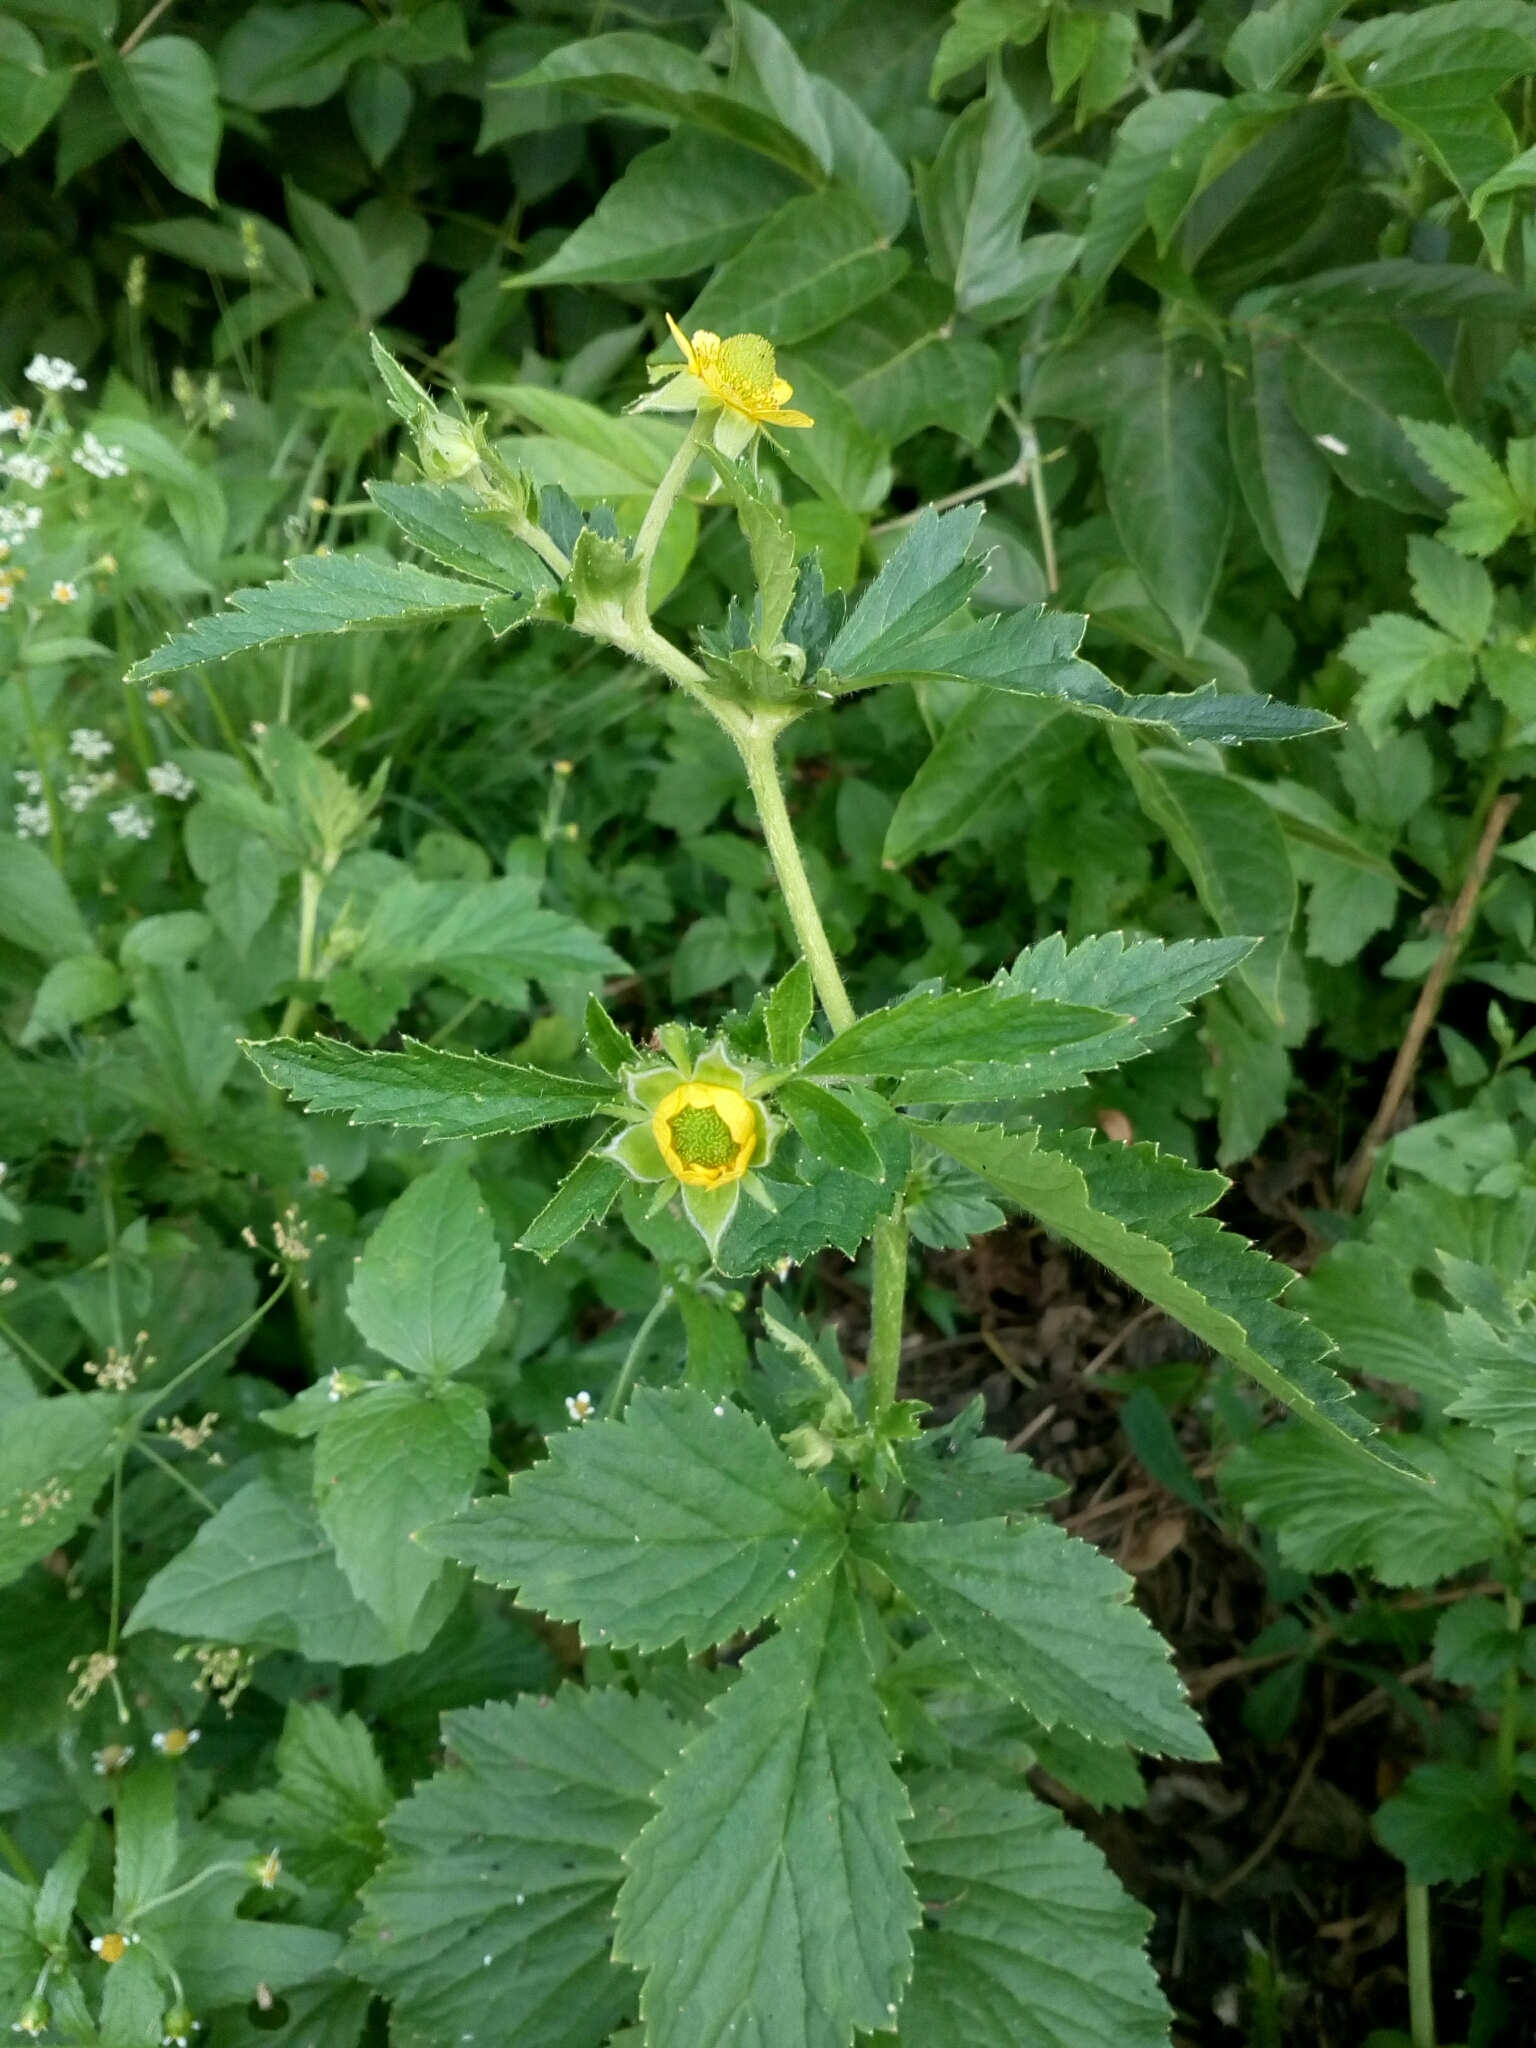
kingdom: Plantae
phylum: Tracheophyta
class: Magnoliopsida
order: Rosales
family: Rosaceae
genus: Geum
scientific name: Geum aleppicum
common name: Yellow avens
